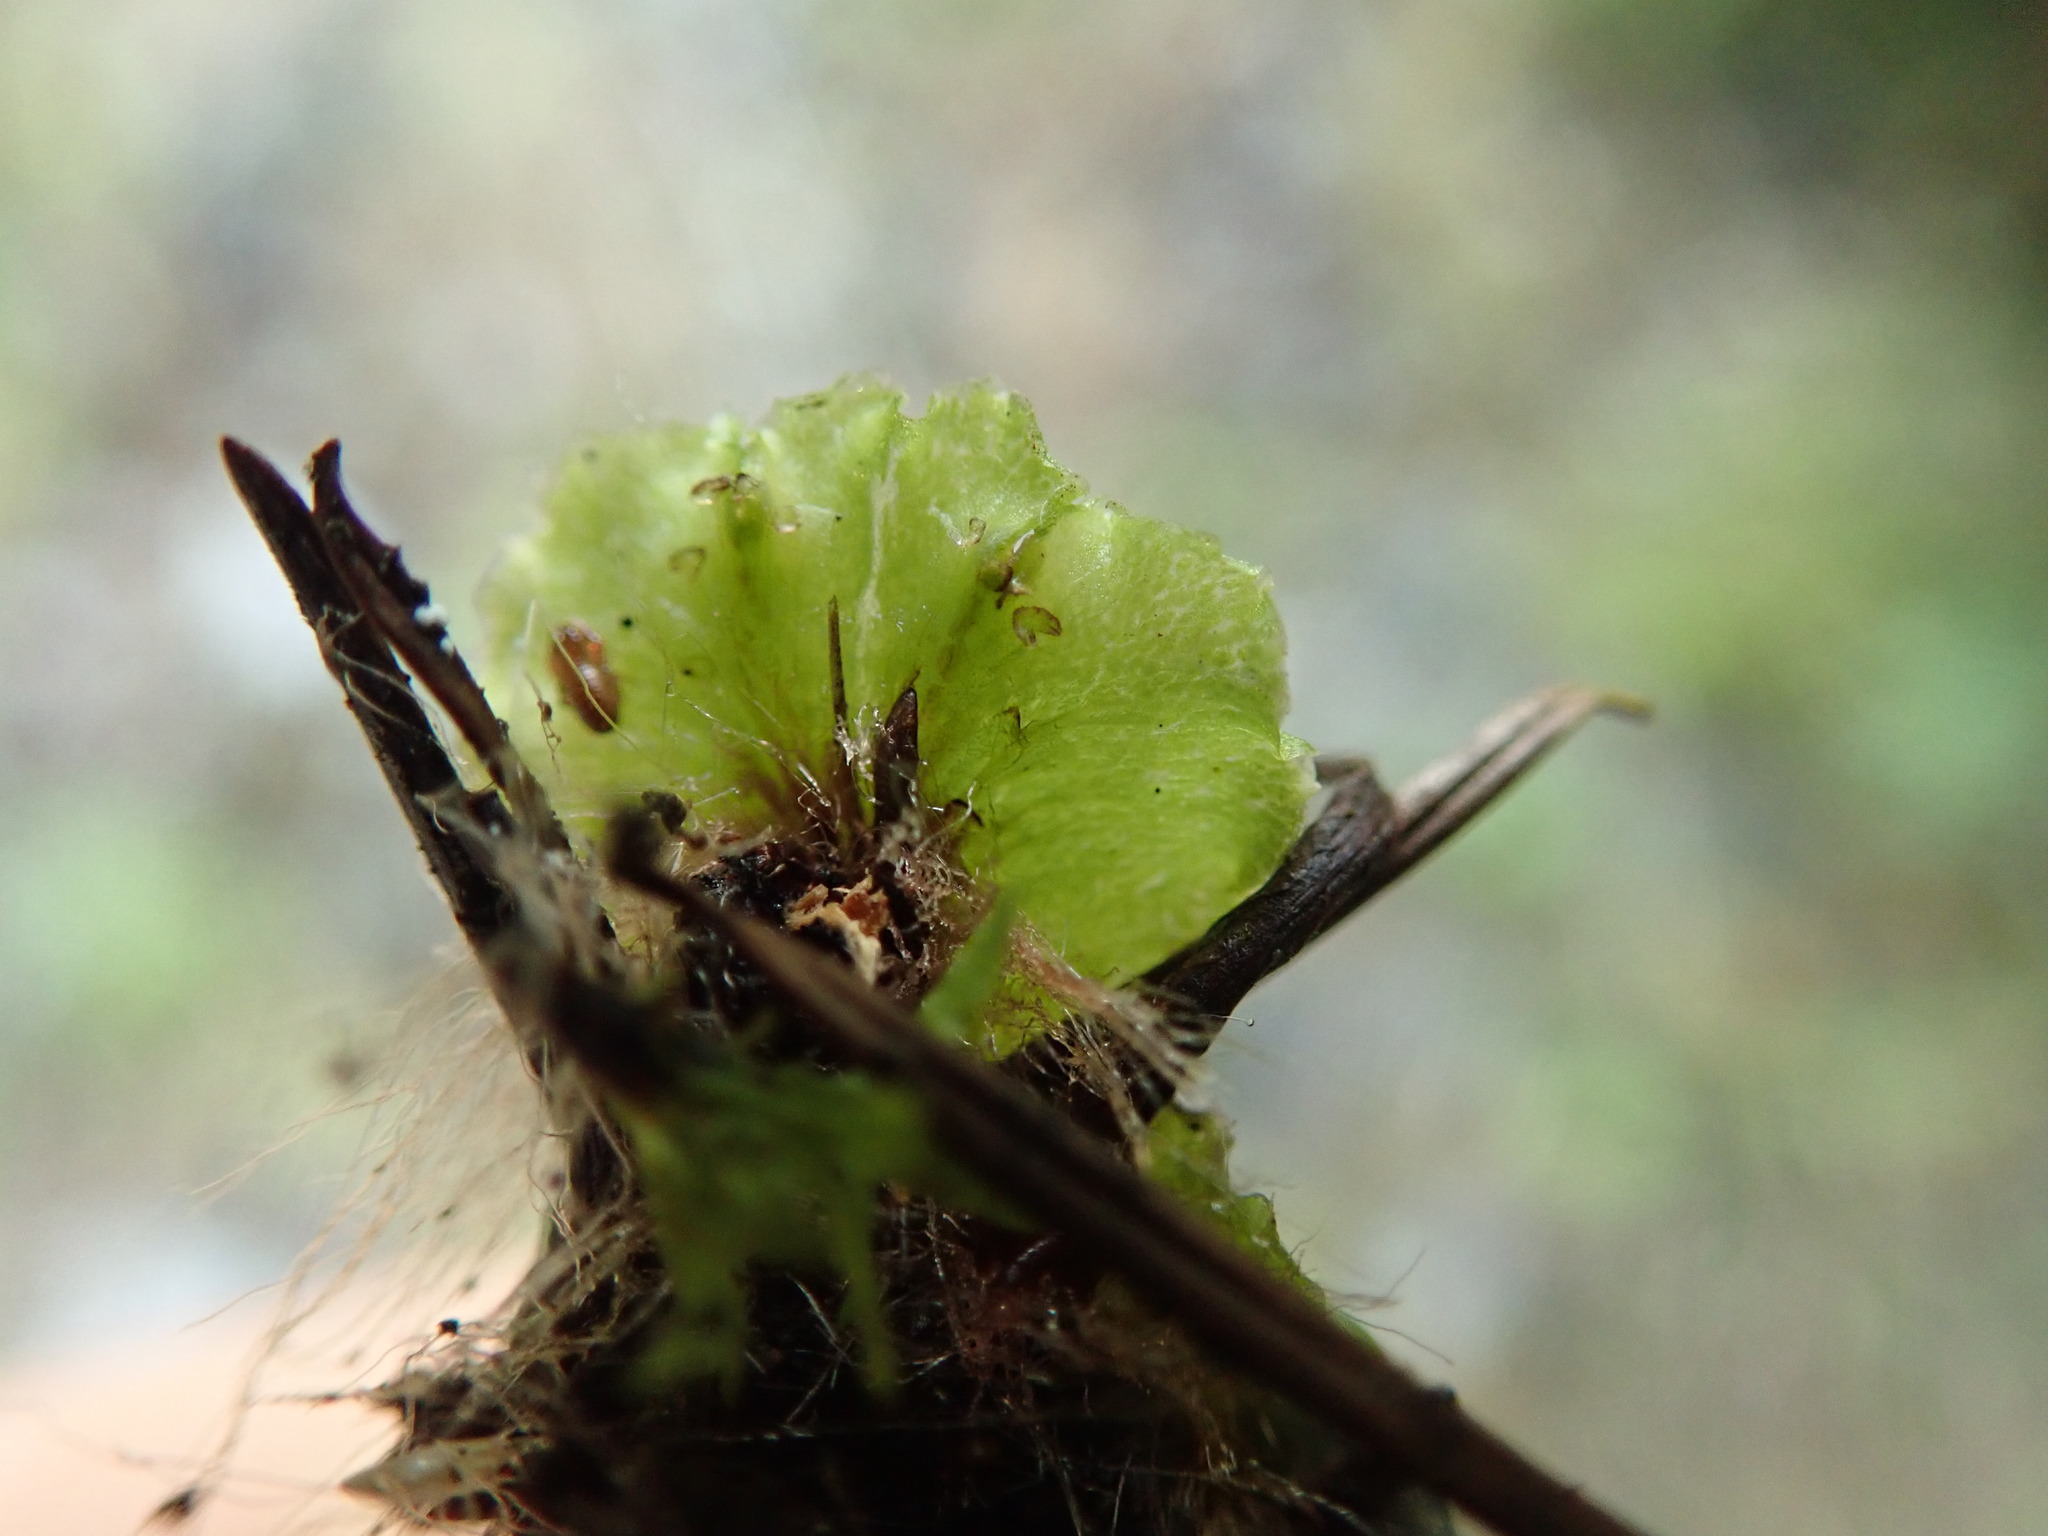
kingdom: Plantae
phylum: Marchantiophyta
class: Marchantiopsida
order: Marchantiales
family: Marchantiaceae
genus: Marchantia
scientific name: Marchantia polymorpha
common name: Common liverwort
